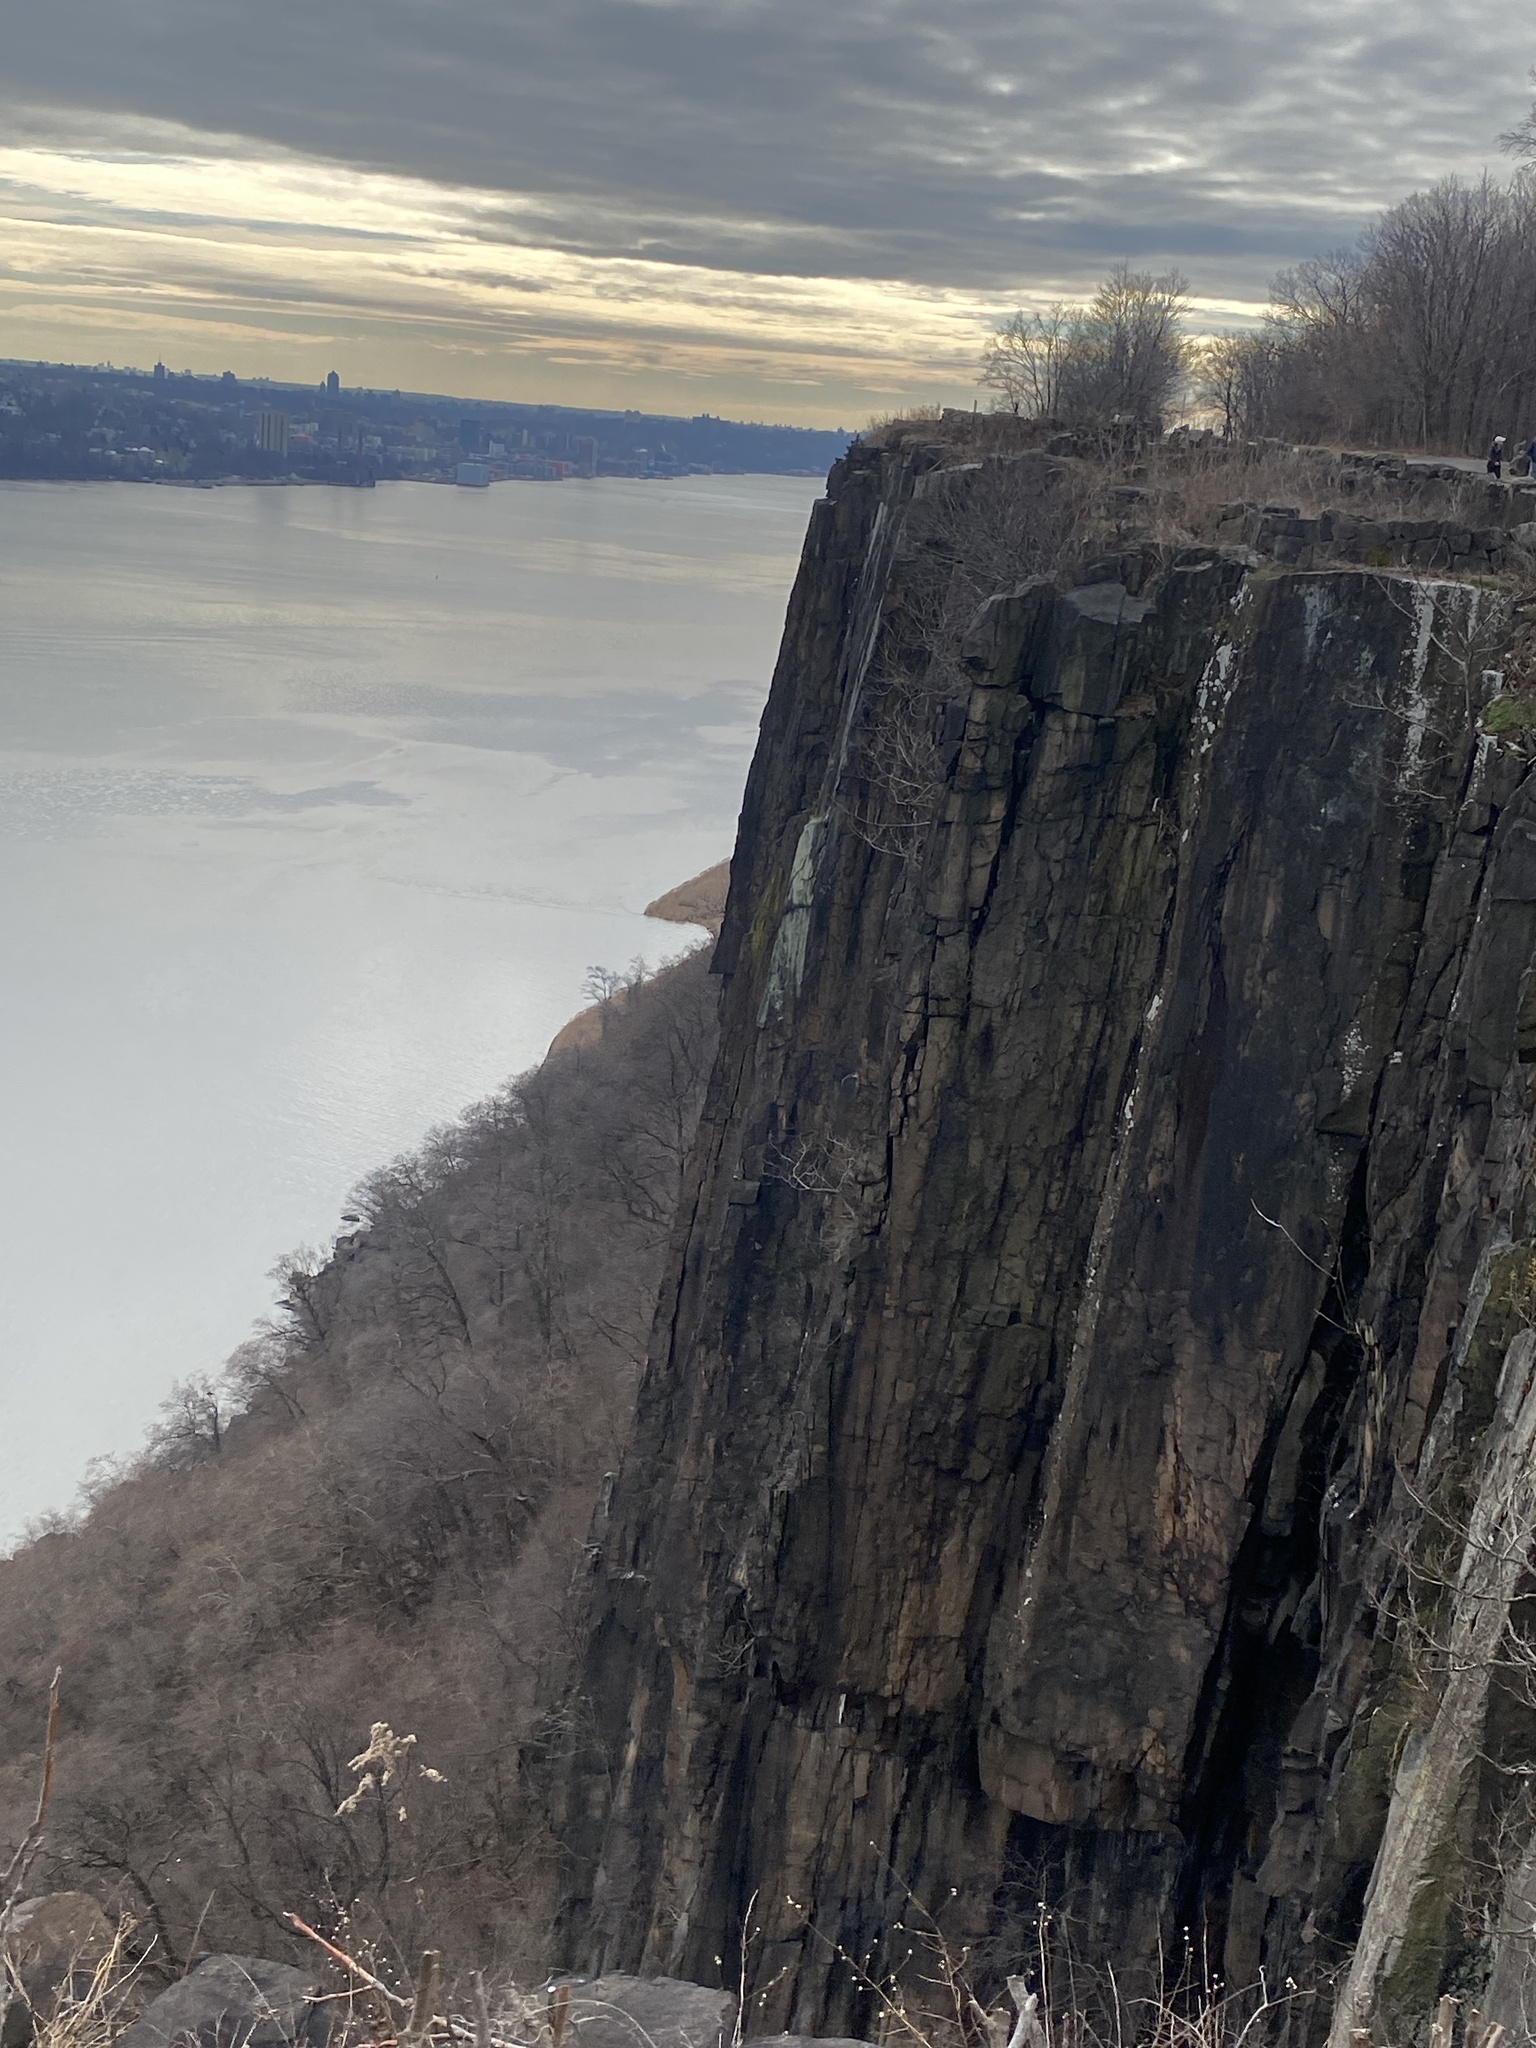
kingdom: Plantae
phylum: Tracheophyta
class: Magnoliopsida
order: Rosales
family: Rosaceae
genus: Potentilla
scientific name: Potentilla recta
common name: Sulphur cinquefoil
